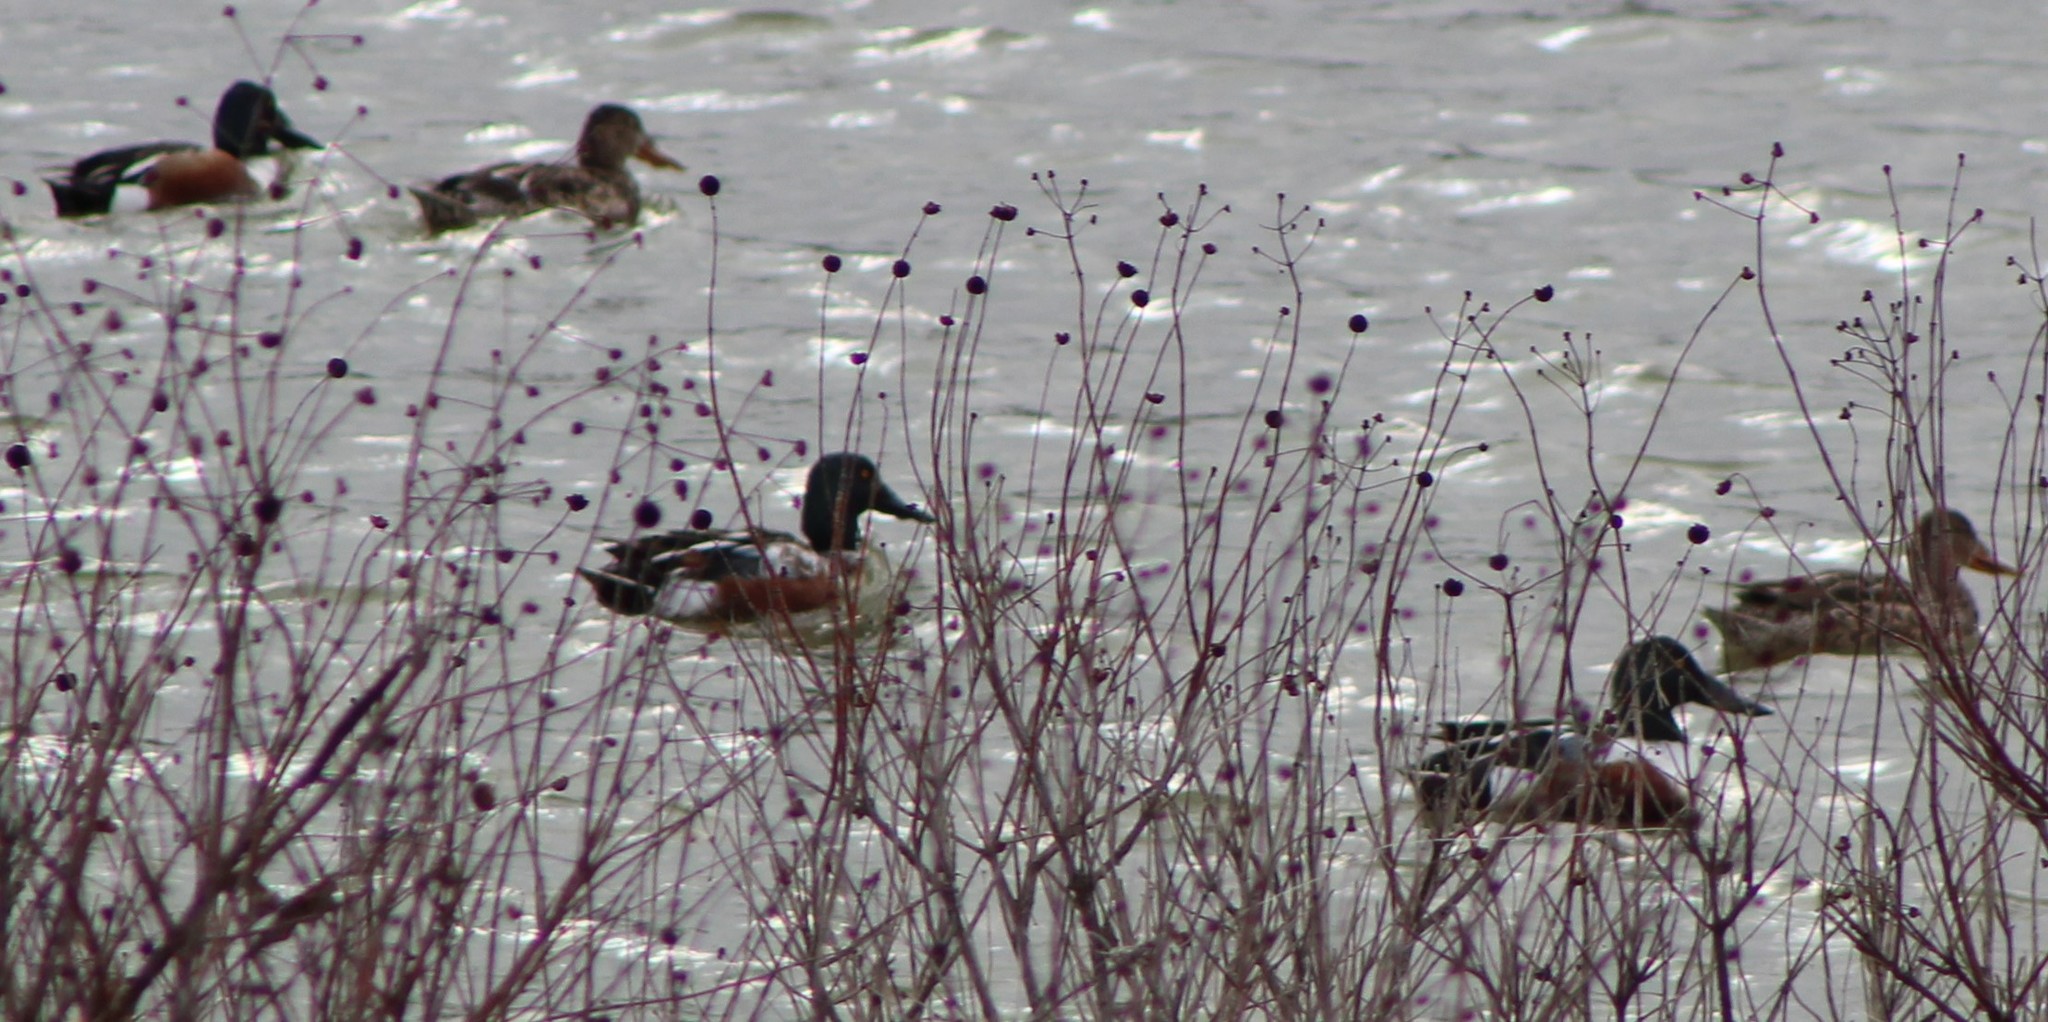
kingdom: Animalia
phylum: Chordata
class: Aves
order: Anseriformes
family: Anatidae
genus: Spatula
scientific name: Spatula clypeata
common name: Northern shoveler
